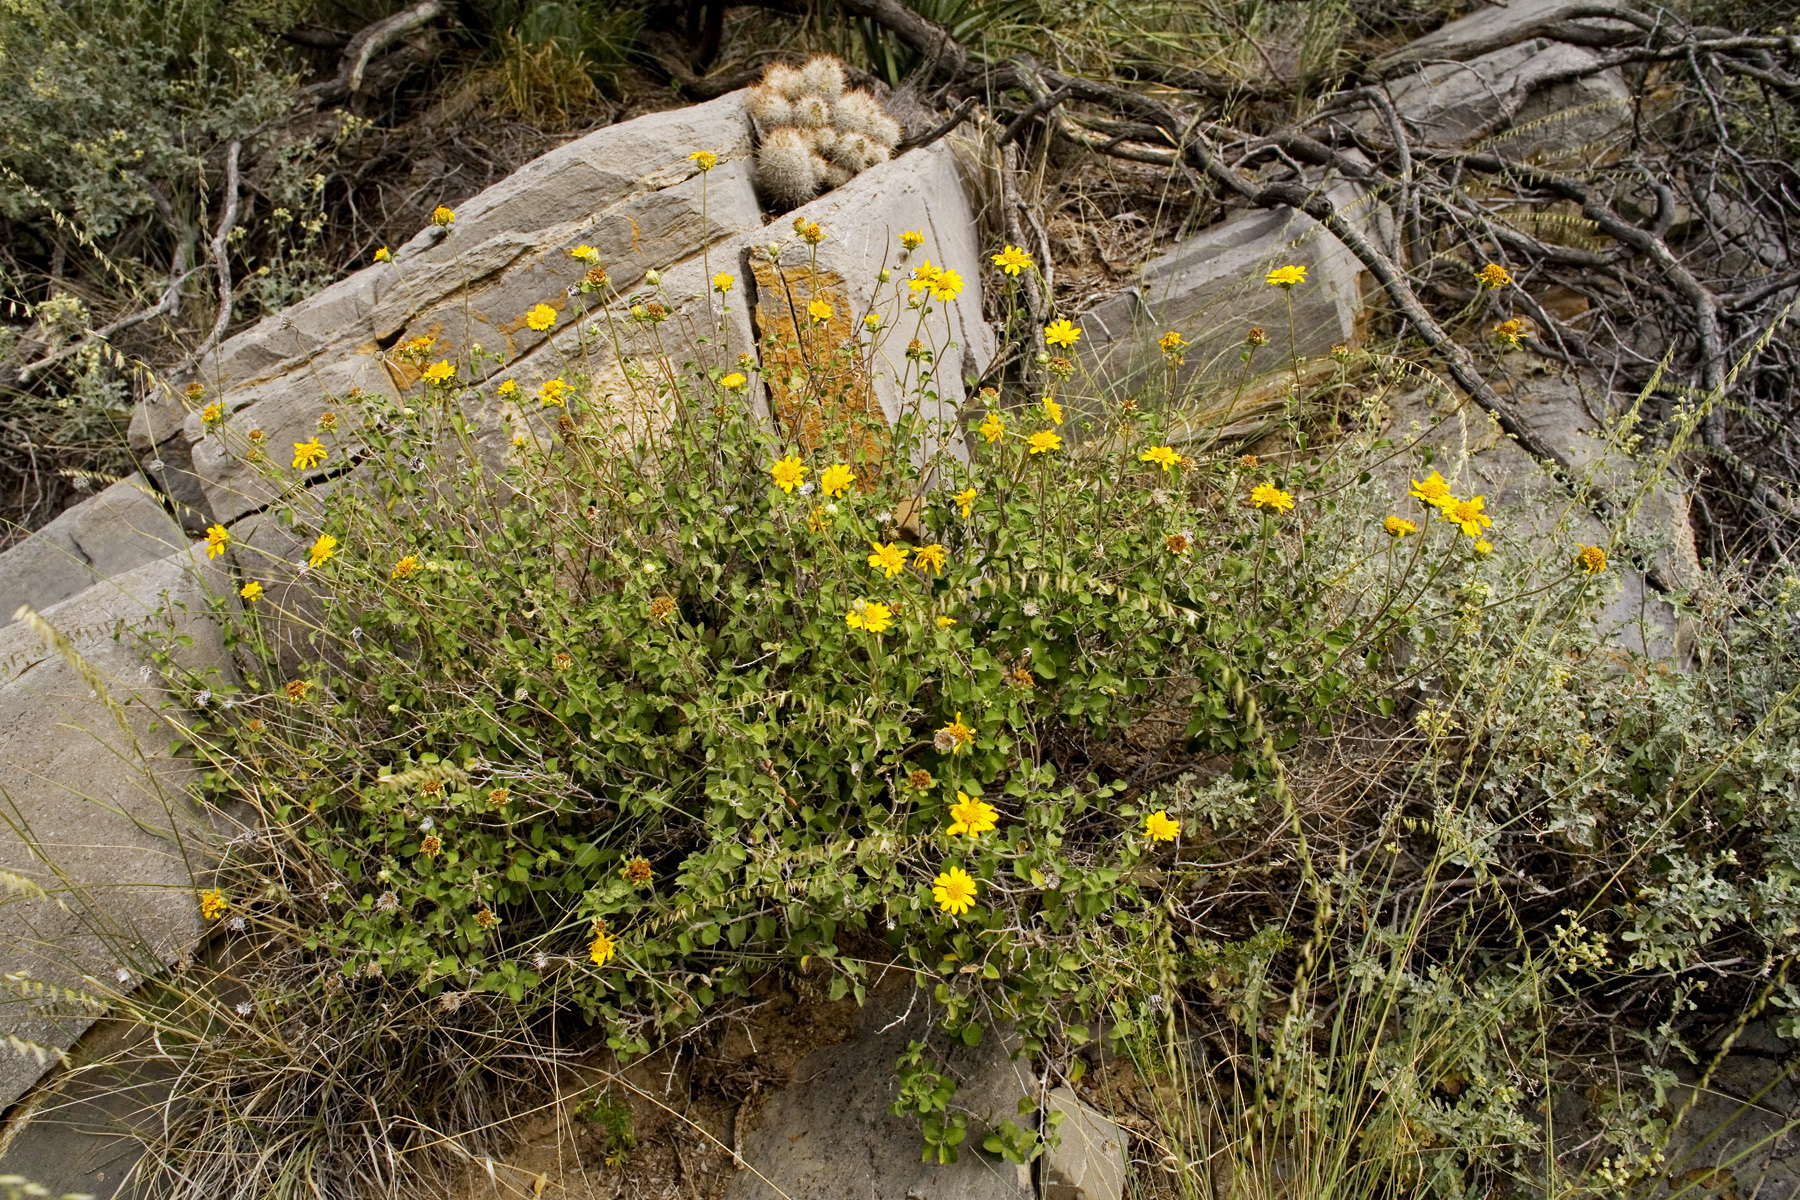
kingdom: Plantae
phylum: Tracheophyta
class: Magnoliopsida
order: Asterales
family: Asteraceae
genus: Jefea
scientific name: Jefea brevifolia
